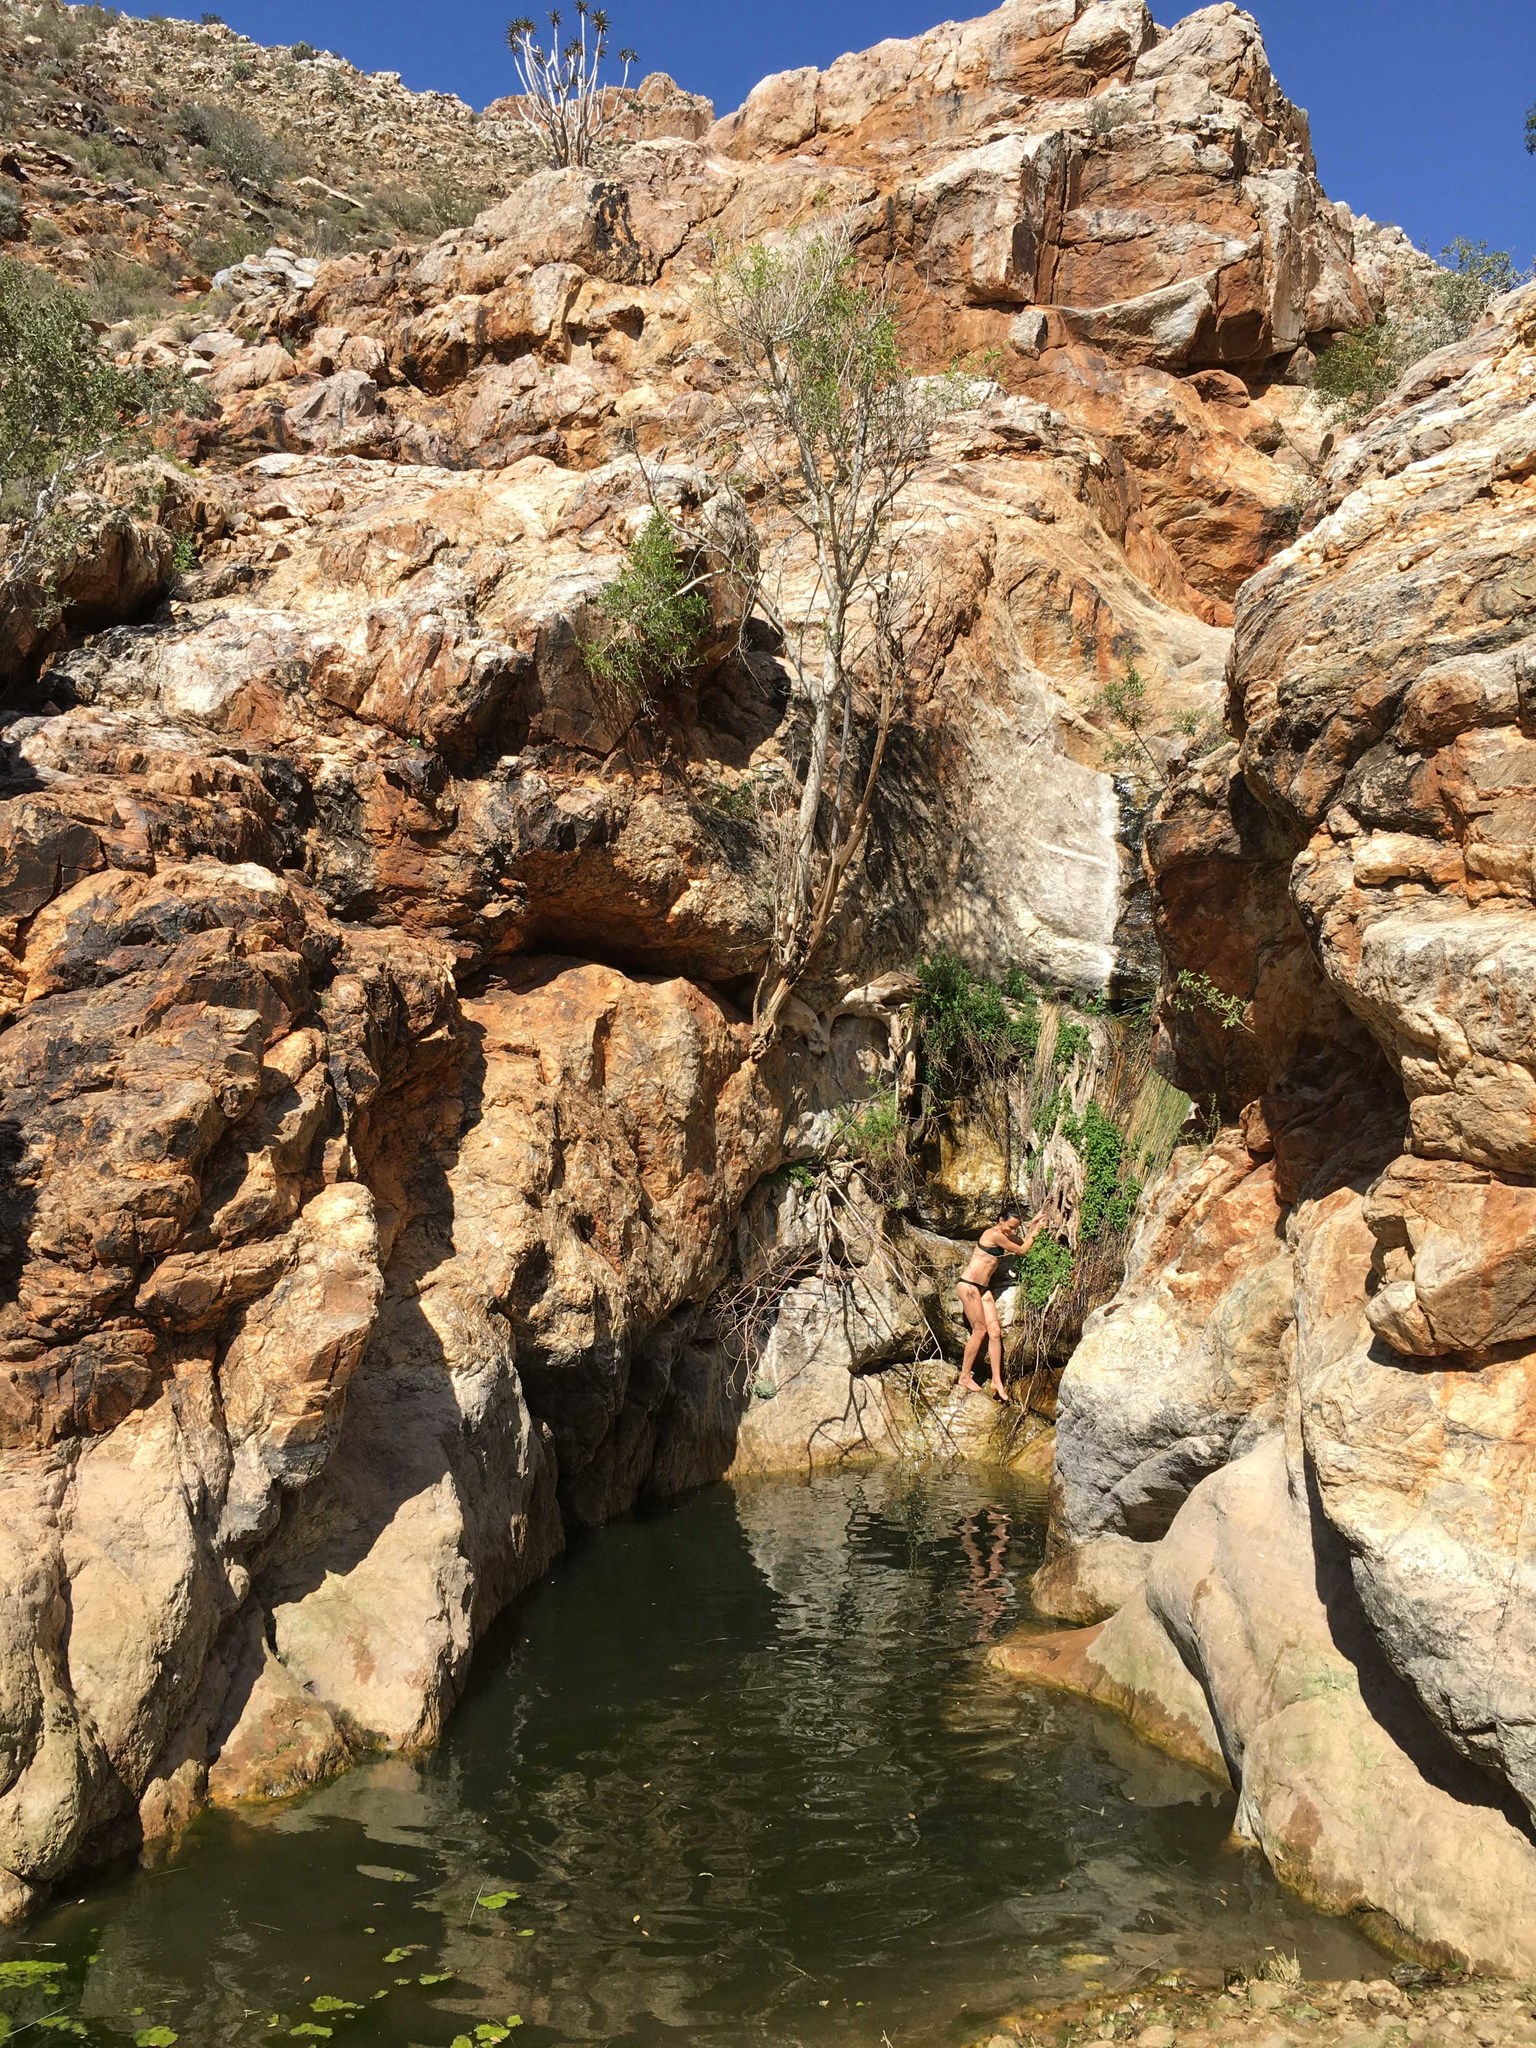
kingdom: Animalia
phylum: Chordata
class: Amphibia
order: Anura
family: Pipidae
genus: Xenopus
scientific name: Xenopus laevis
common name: African clawed frog
